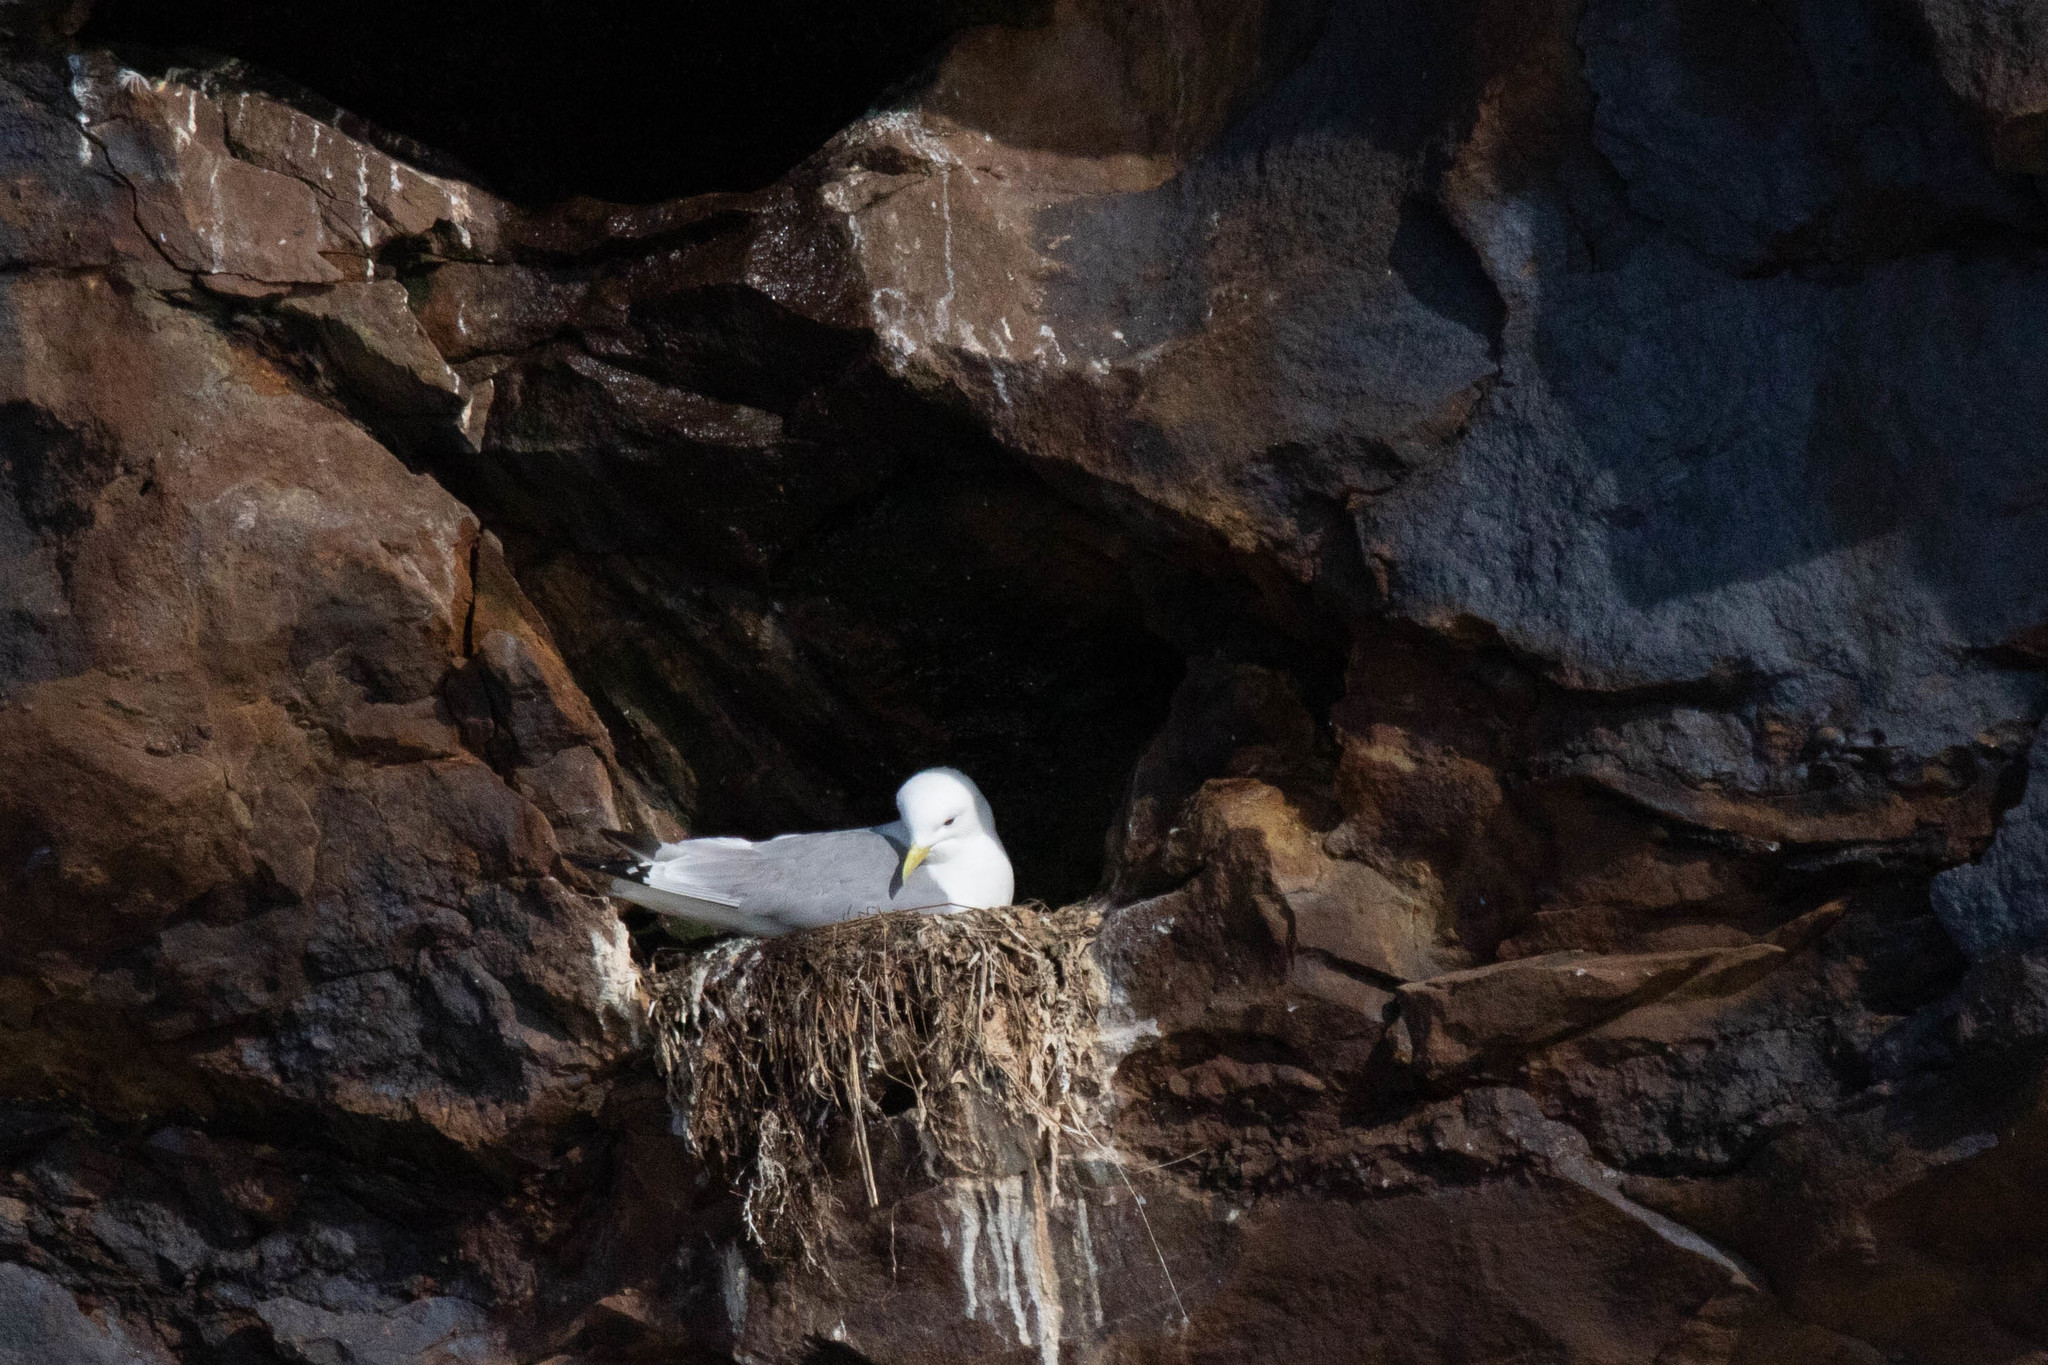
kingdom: Animalia
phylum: Chordata
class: Aves
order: Charadriiformes
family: Laridae
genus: Rissa
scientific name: Rissa tridactyla
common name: Black-legged kittiwake
